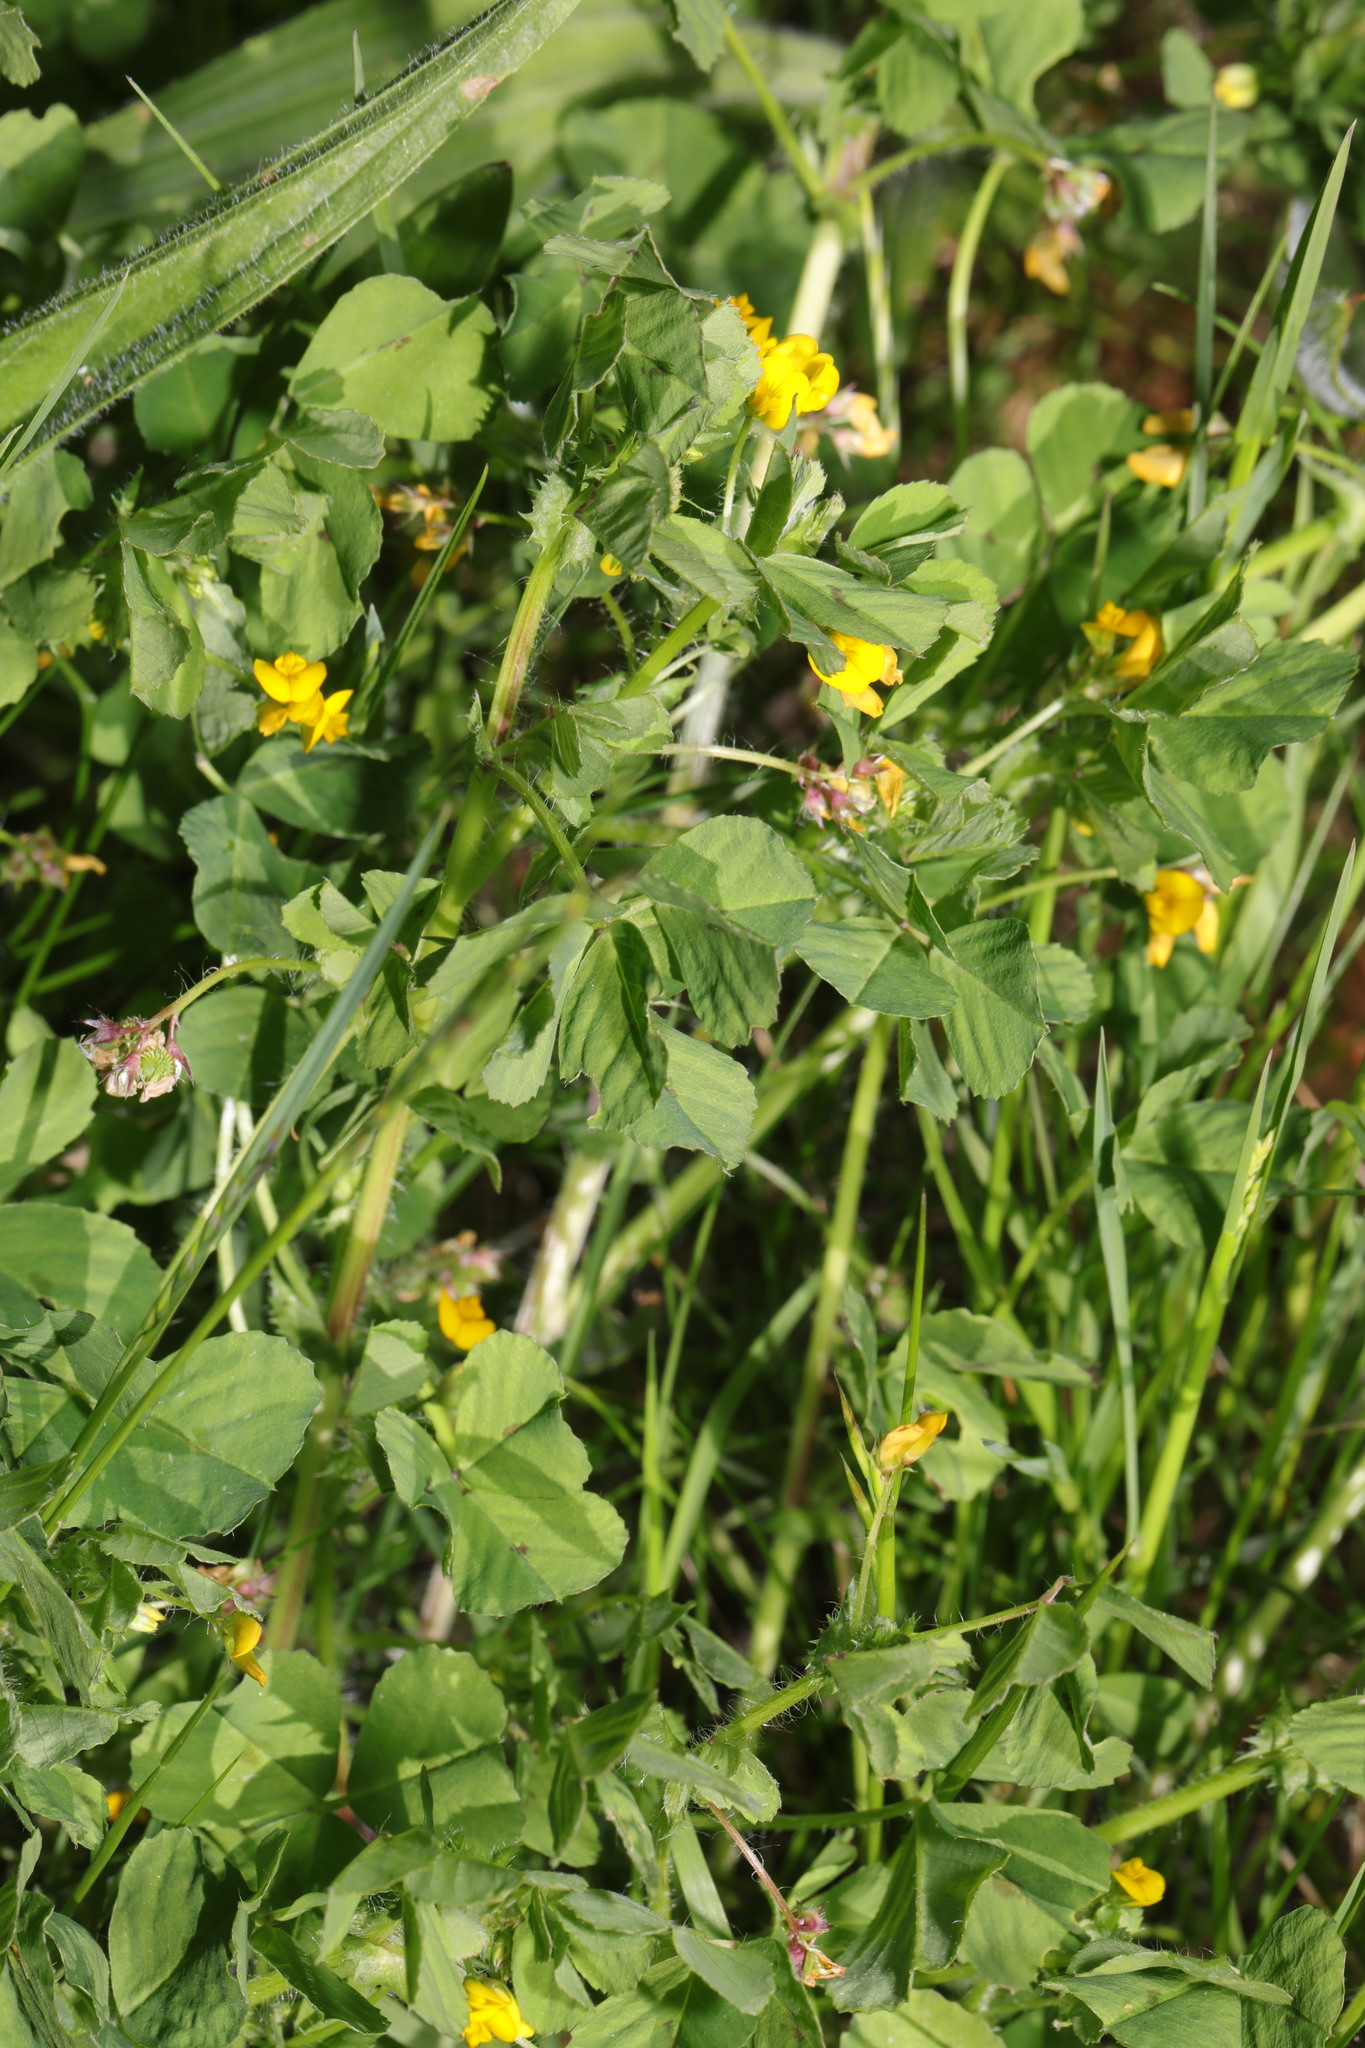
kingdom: Plantae
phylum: Tracheophyta
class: Magnoliopsida
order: Fabales
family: Fabaceae
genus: Medicago
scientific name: Medicago arabica
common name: Spotted medick
